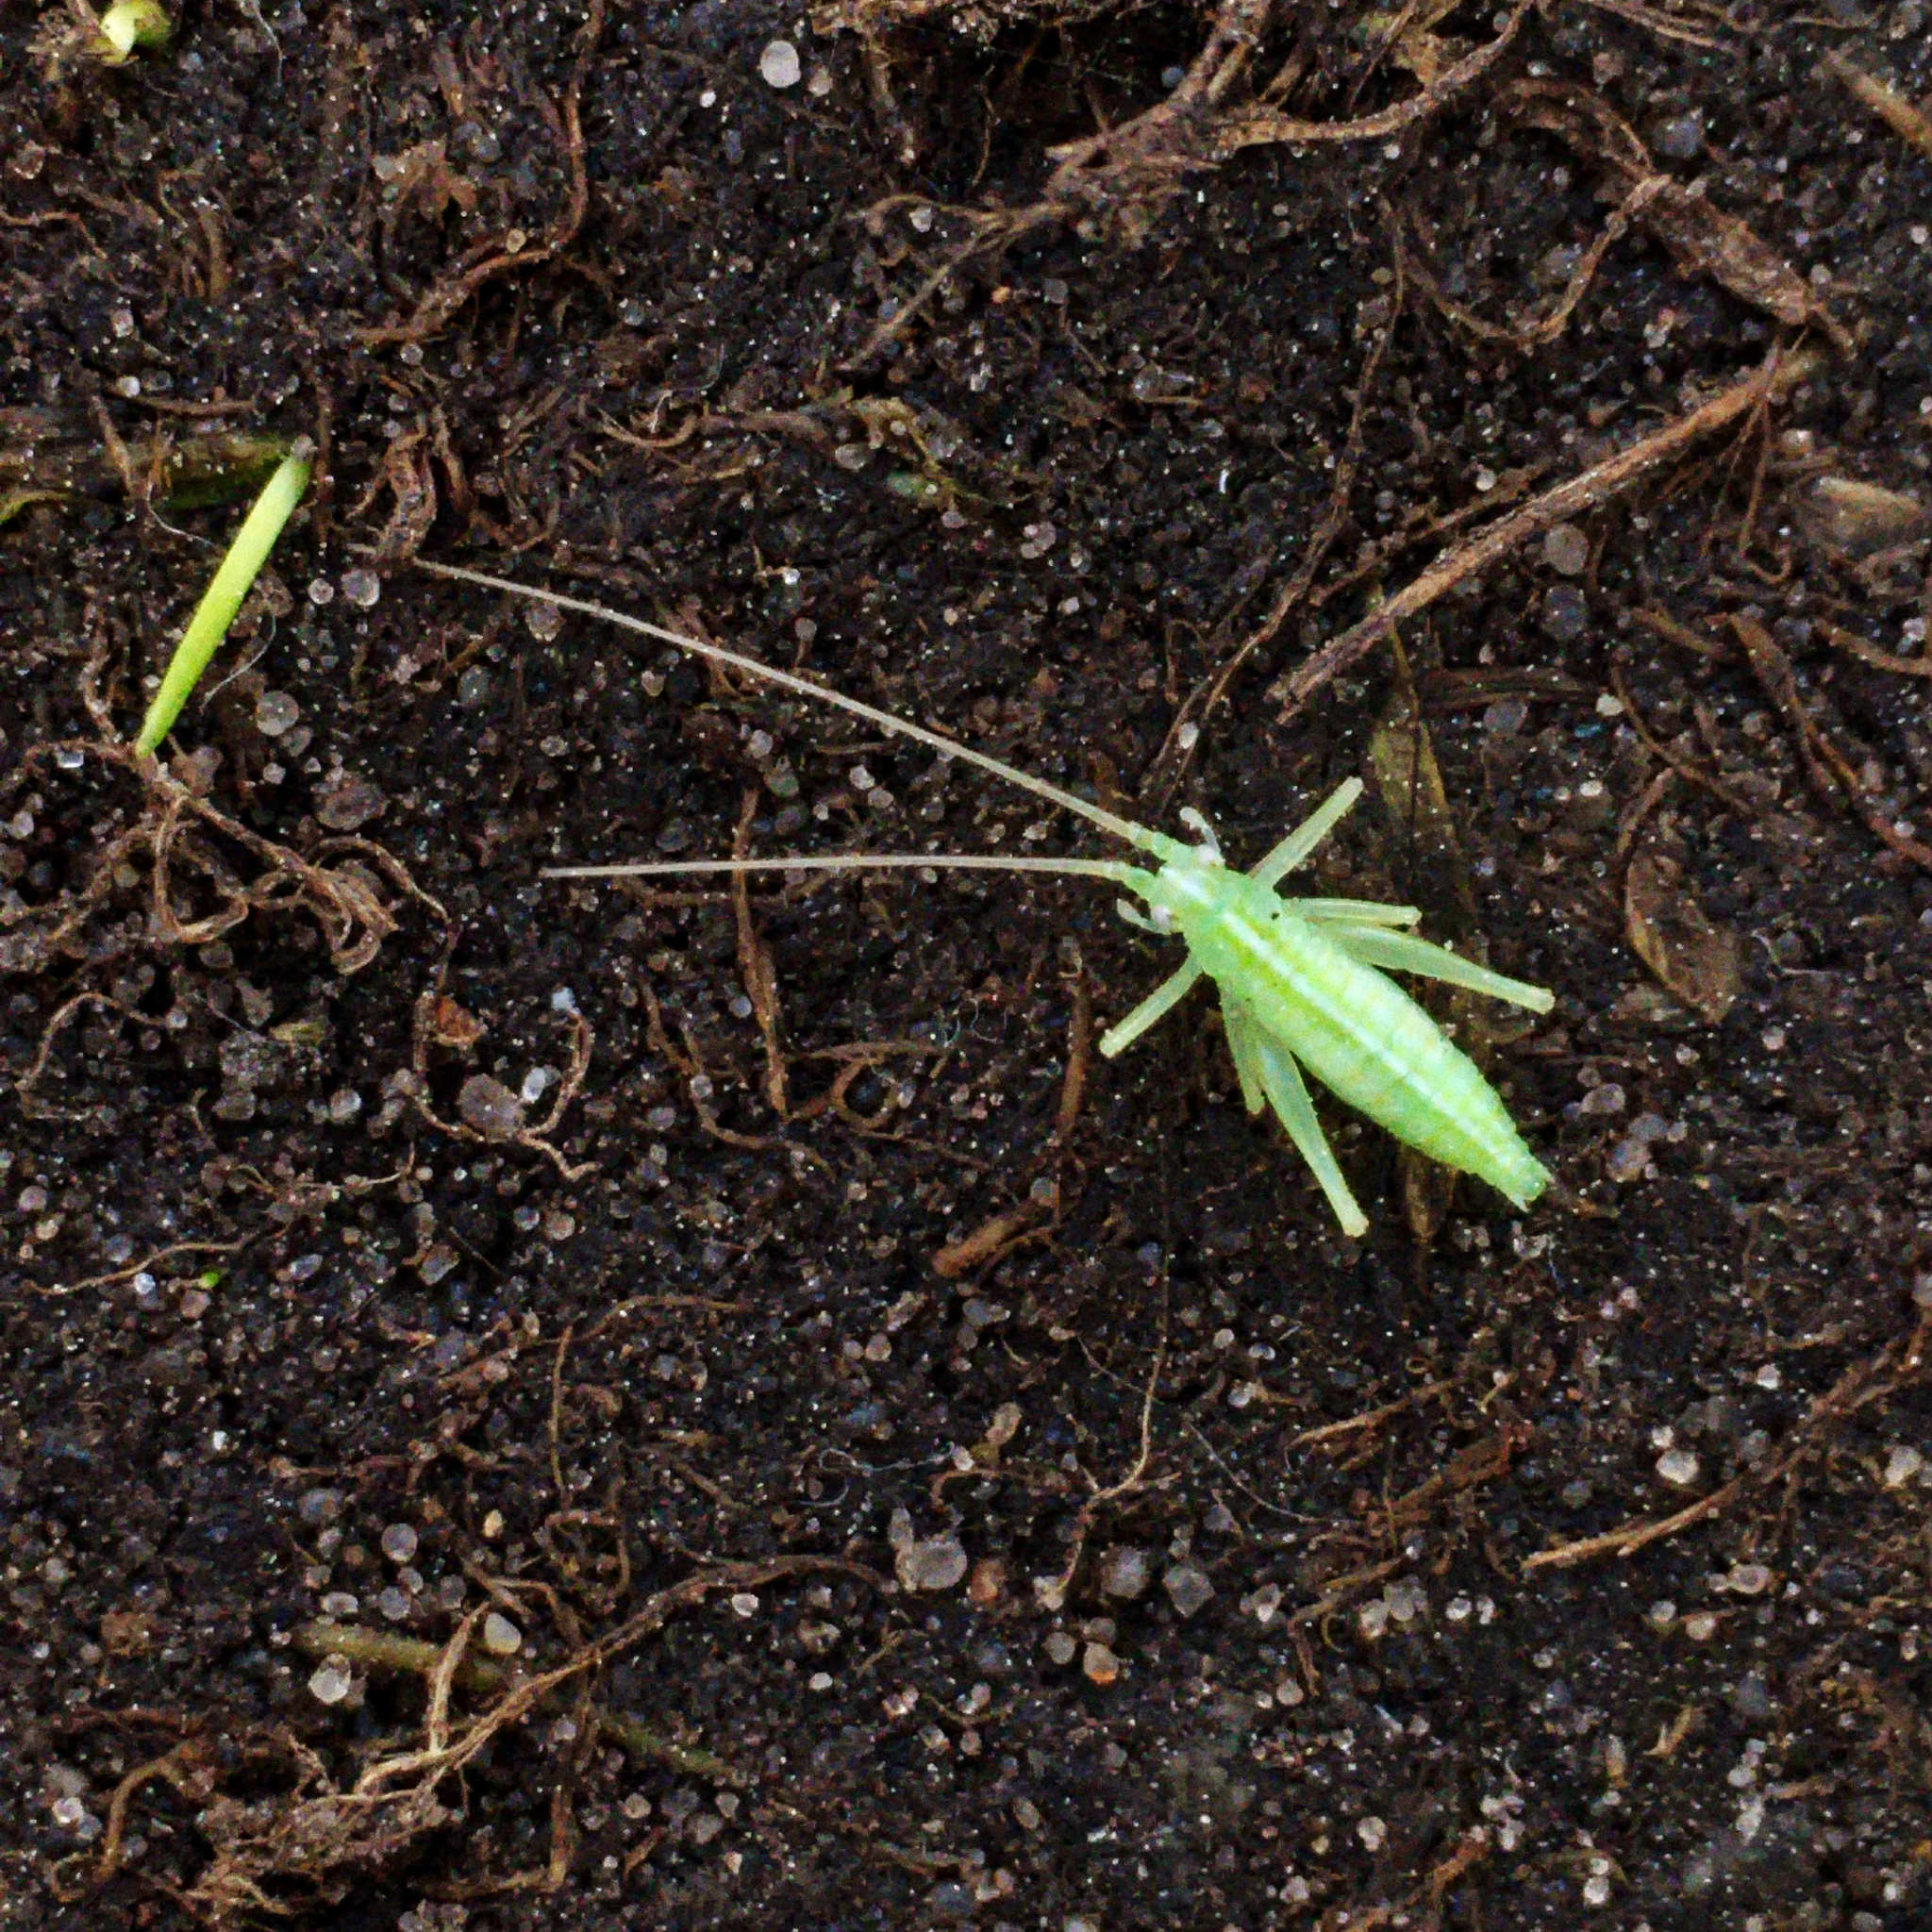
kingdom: Animalia
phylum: Arthropoda
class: Insecta
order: Orthoptera
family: Tettigoniidae
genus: Meconema
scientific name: Meconema
